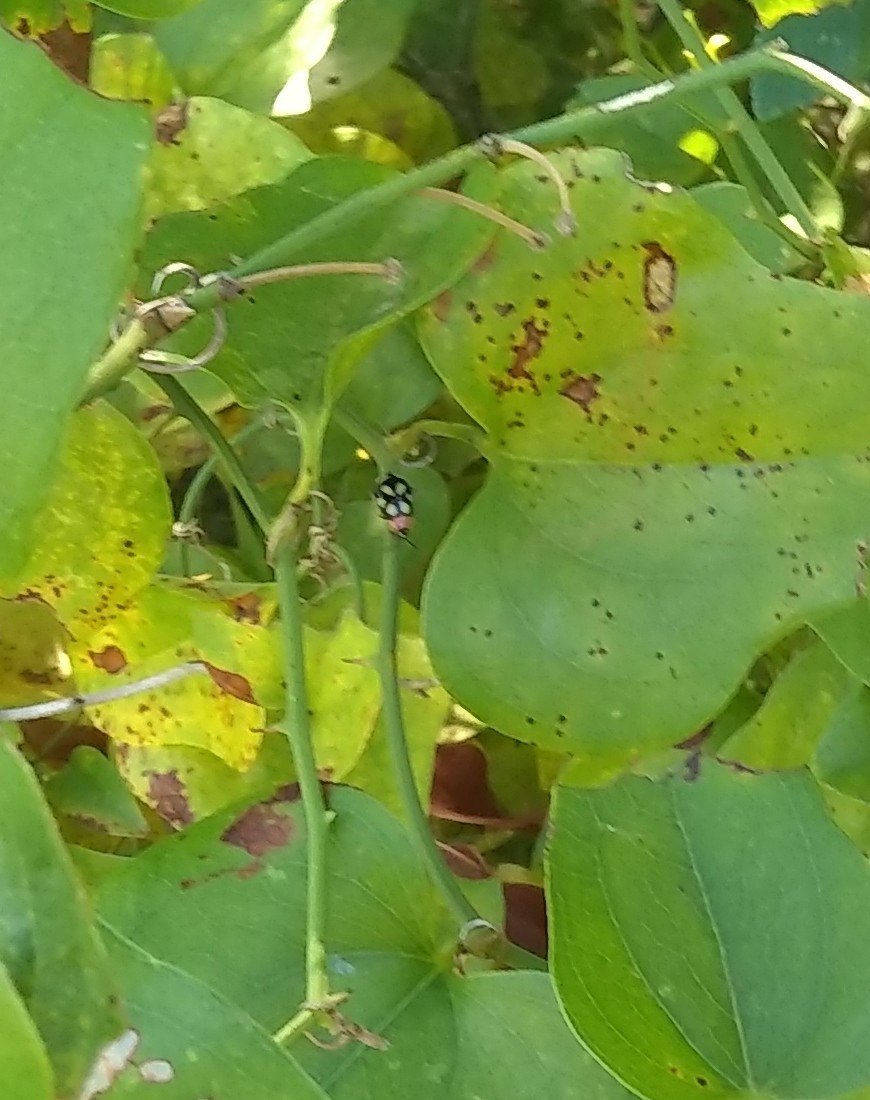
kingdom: Animalia
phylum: Arthropoda
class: Insecta
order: Coleoptera
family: Chrysomelidae
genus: Omophoita
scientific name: Omophoita cyanipennis
